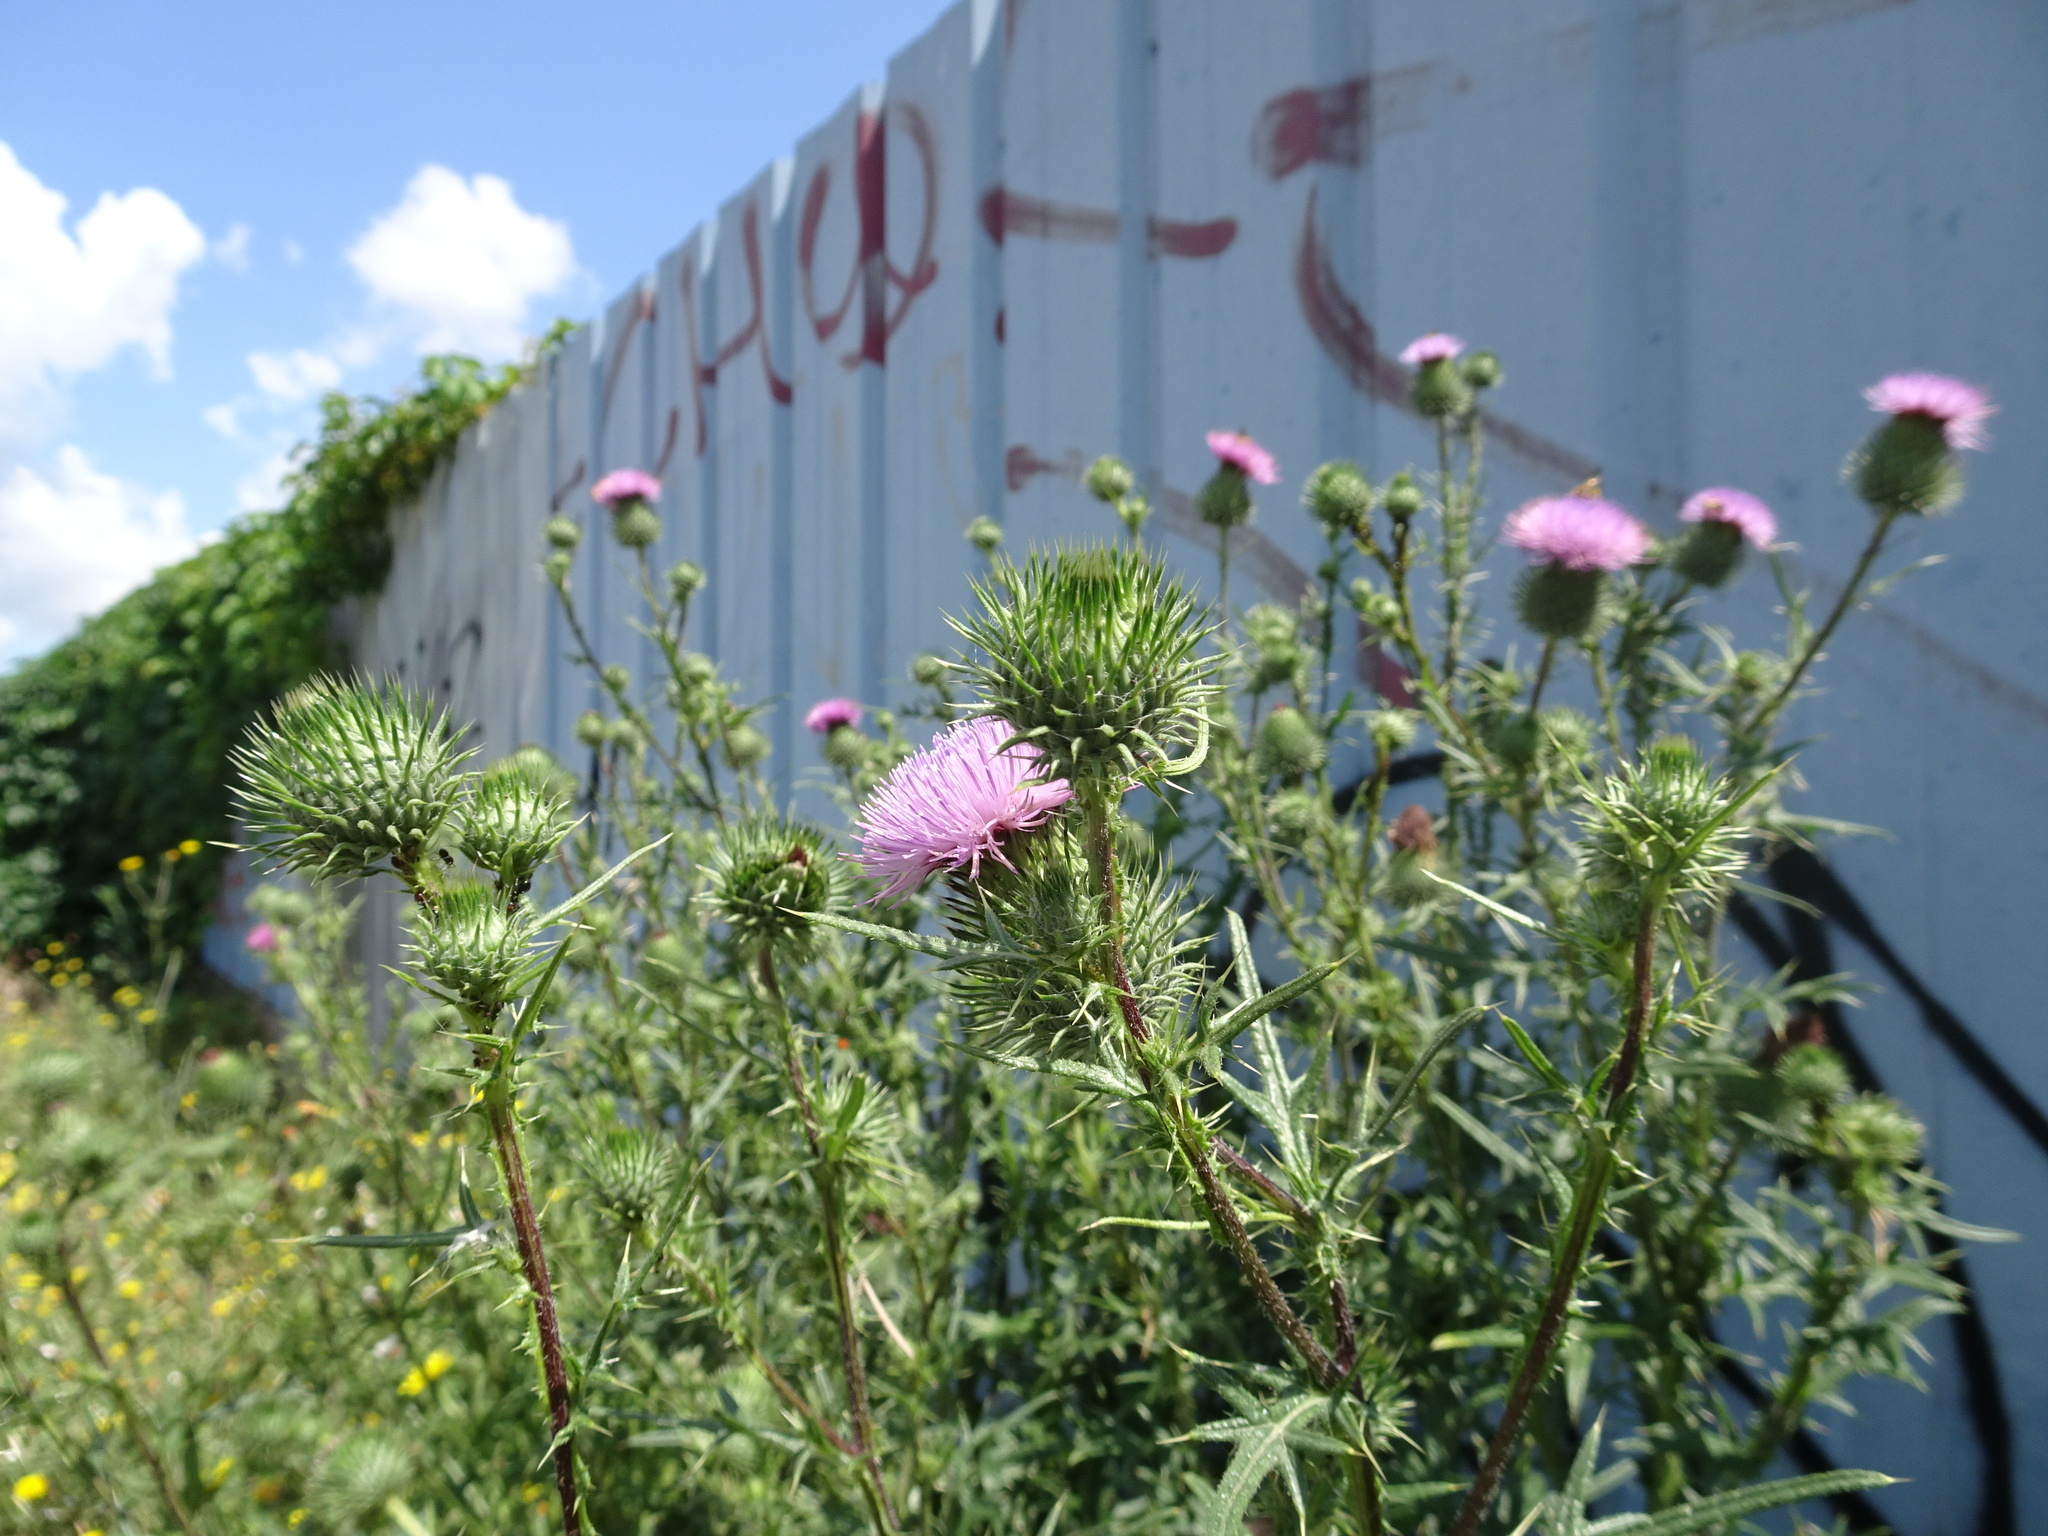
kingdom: Plantae
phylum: Tracheophyta
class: Magnoliopsida
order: Asterales
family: Asteraceae
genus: Cirsium
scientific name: Cirsium vulgare
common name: Bull thistle
